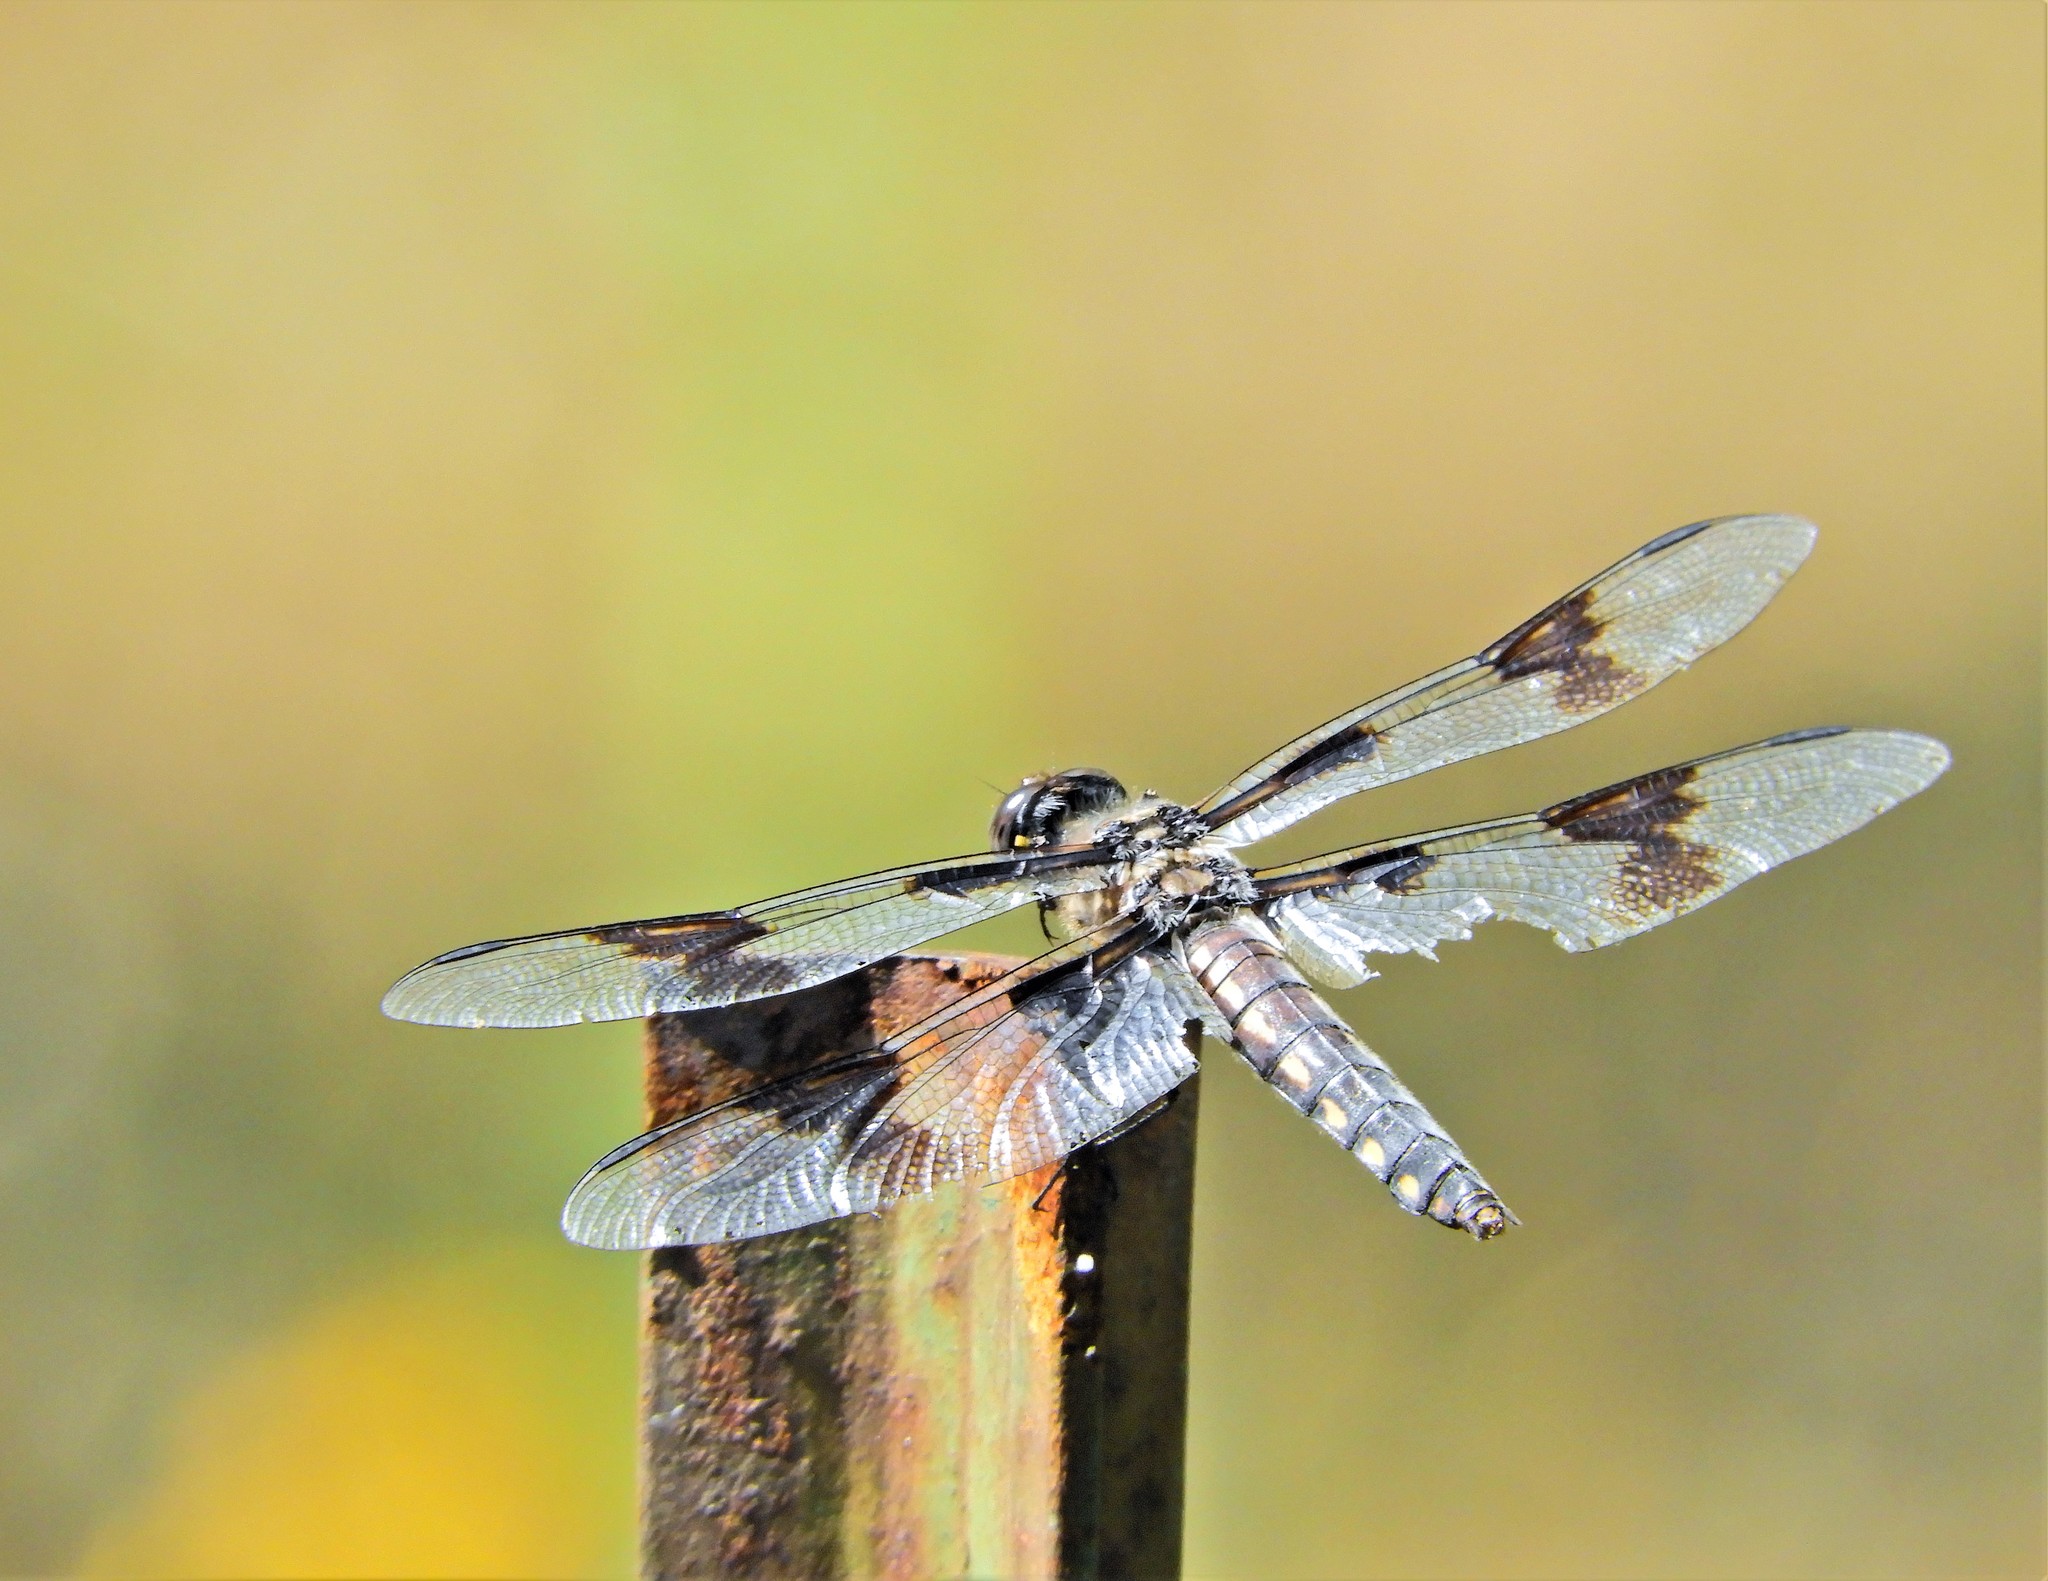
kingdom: Animalia
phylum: Arthropoda
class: Insecta
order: Odonata
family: Libellulidae
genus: Libellula
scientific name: Libellula forensis
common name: Eight-spotted skimmer
